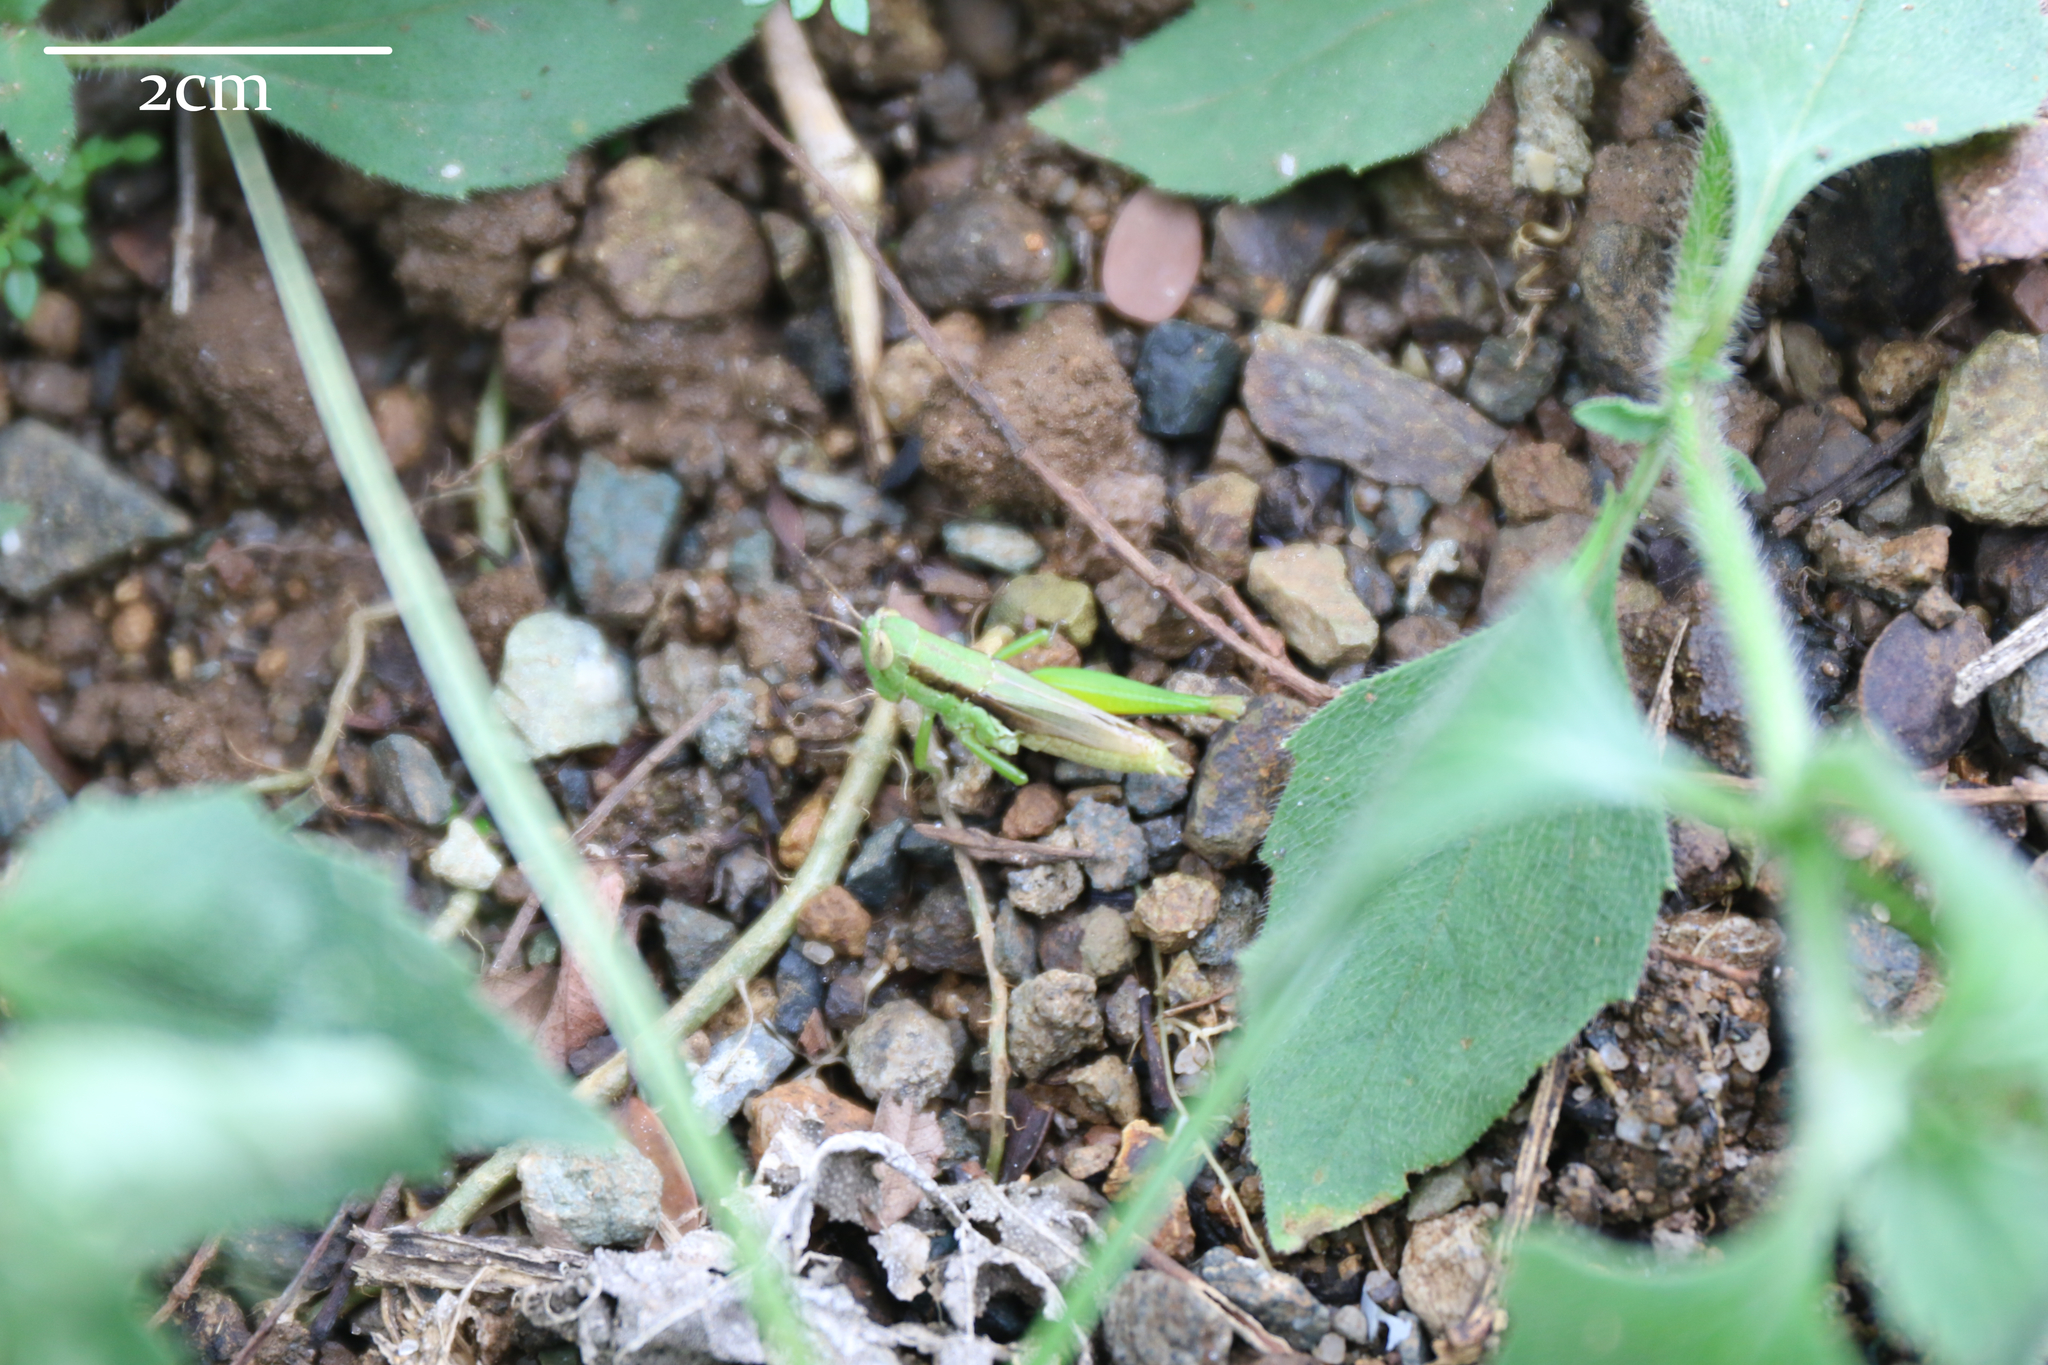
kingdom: Animalia
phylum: Arthropoda
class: Insecta
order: Orthoptera
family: Acrididae
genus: Pseudoxya
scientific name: Pseudoxya diminuta
